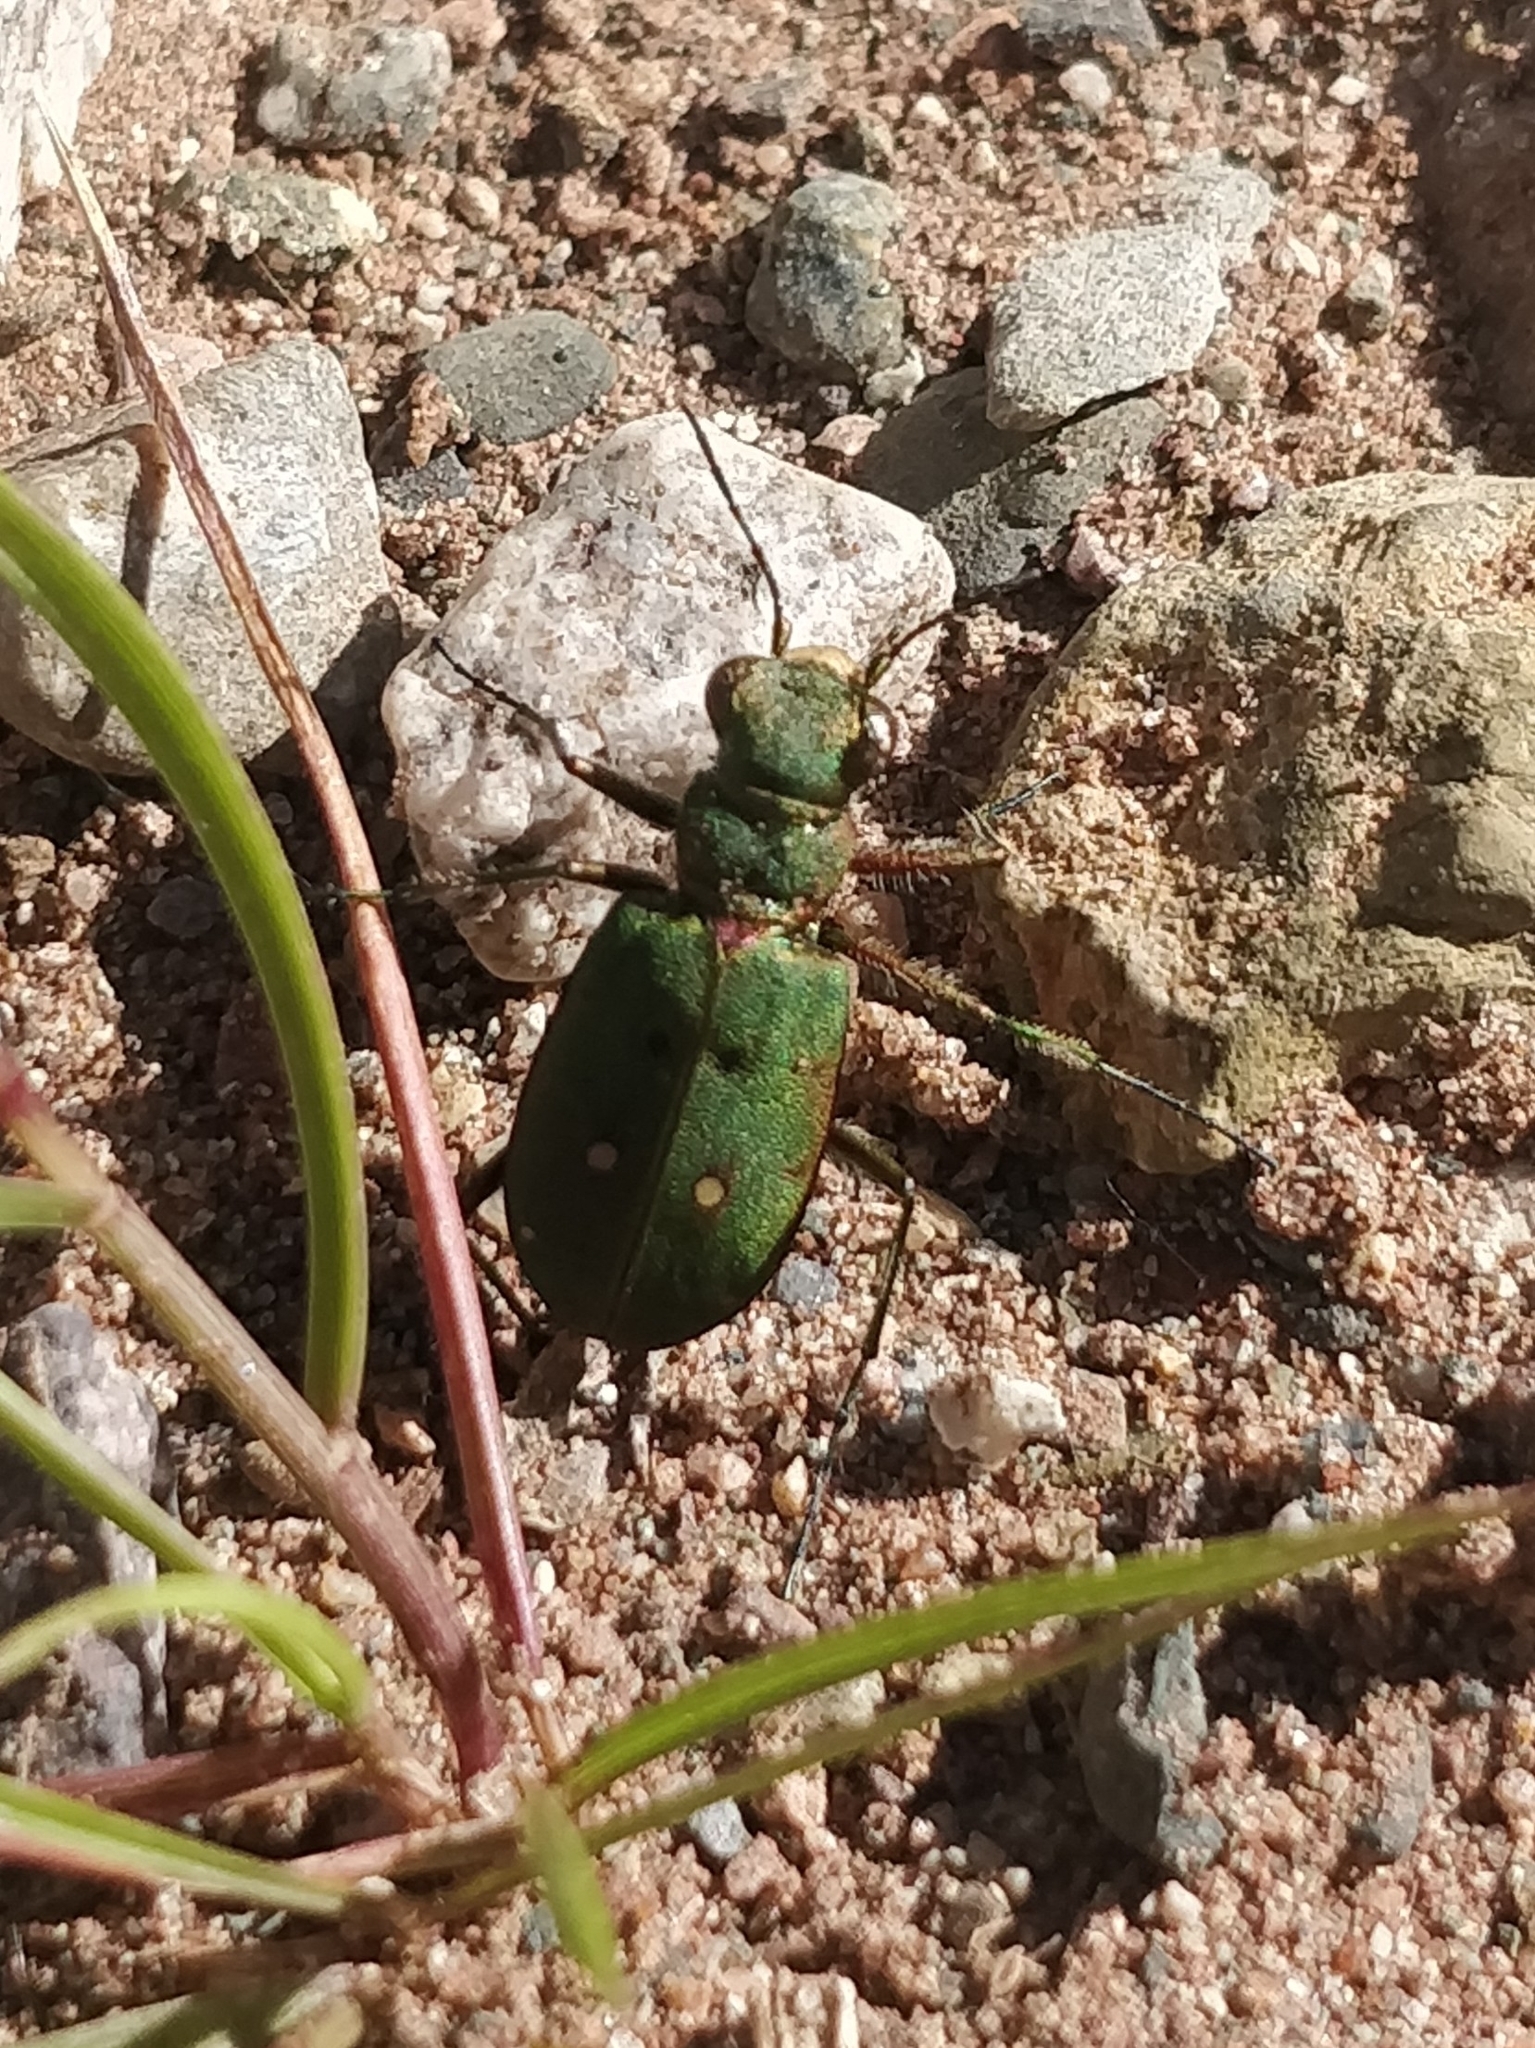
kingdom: Animalia
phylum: Arthropoda
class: Insecta
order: Coleoptera
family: Carabidae
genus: Cicindela
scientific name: Cicindela campestris
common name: Common tiger beetle
